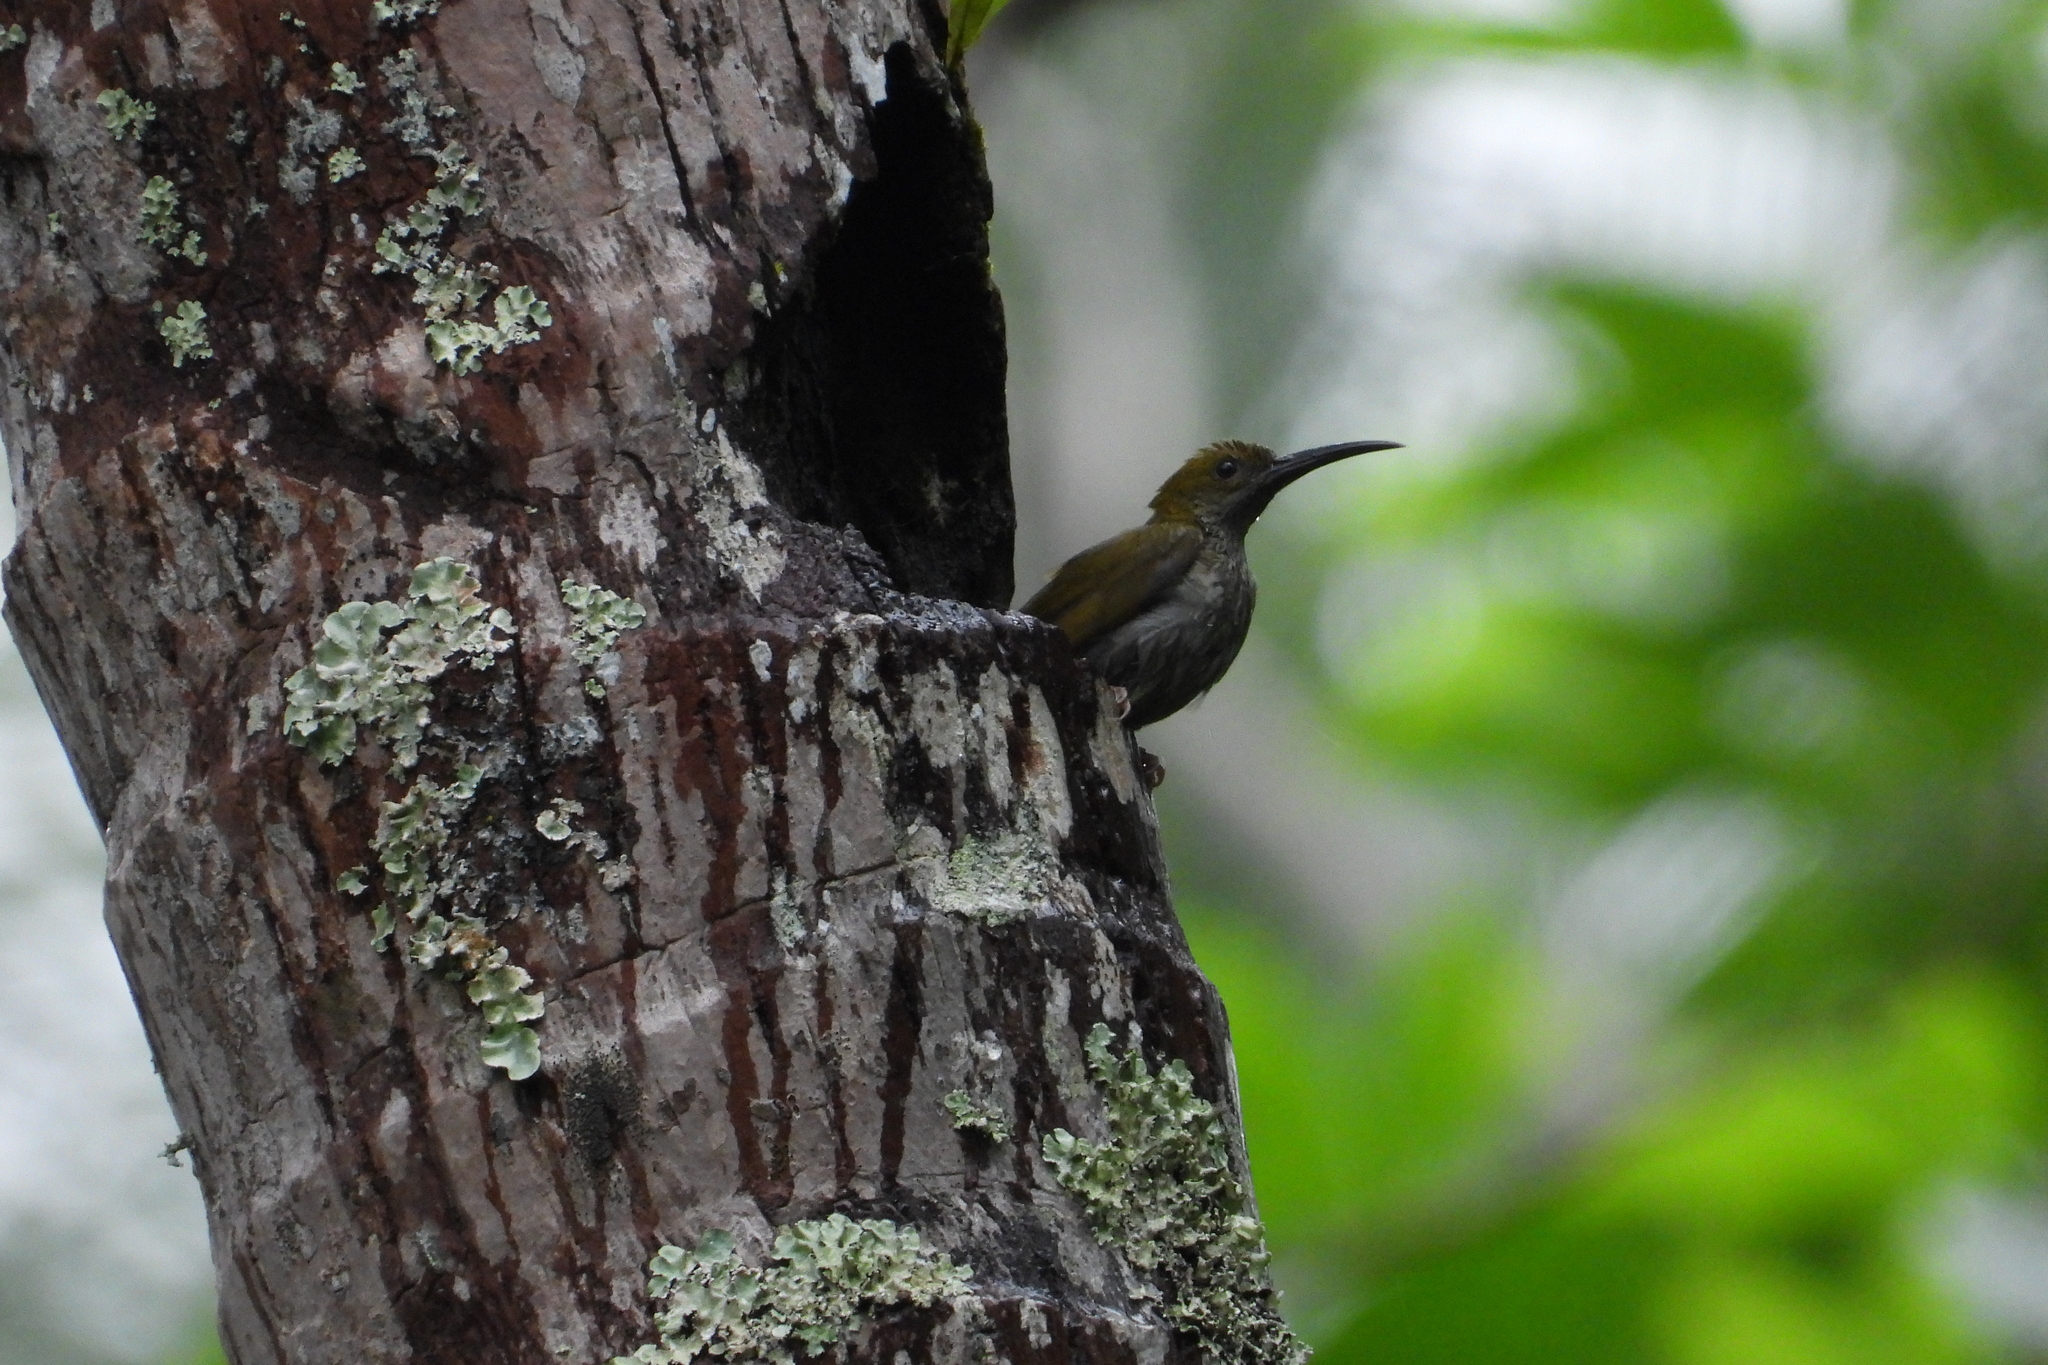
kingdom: Animalia
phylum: Chordata
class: Aves
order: Passeriformes
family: Nectariniidae
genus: Arachnothera
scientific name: Arachnothera affinis
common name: Streaky-breasted spiderhunter
